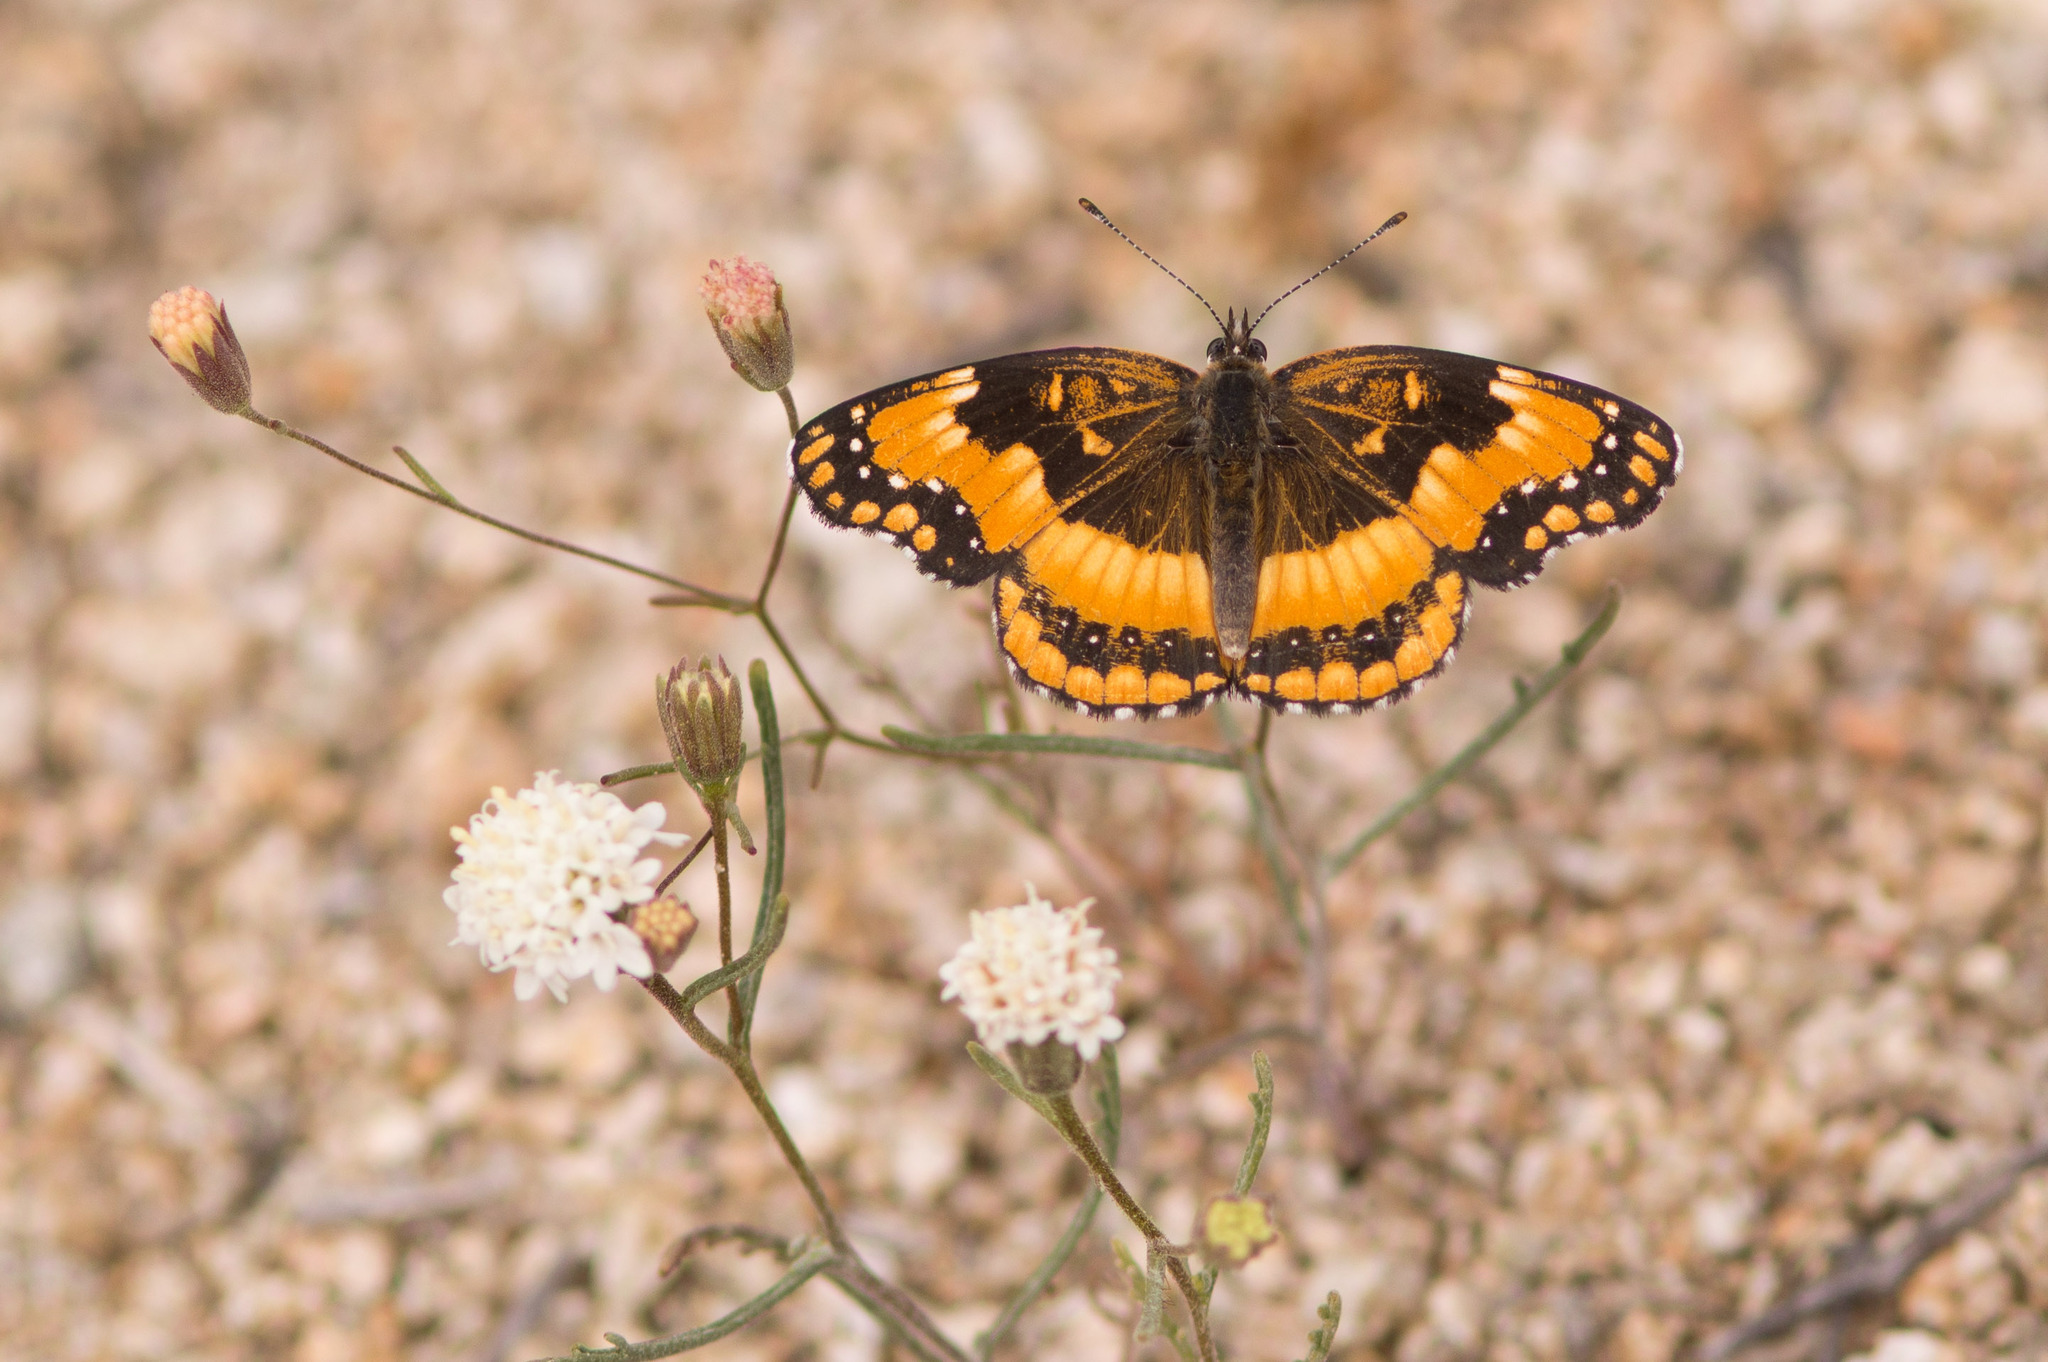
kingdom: Animalia
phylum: Arthropoda
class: Insecta
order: Lepidoptera
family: Nymphalidae
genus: Chlosyne
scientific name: Chlosyne californica
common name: California patch
